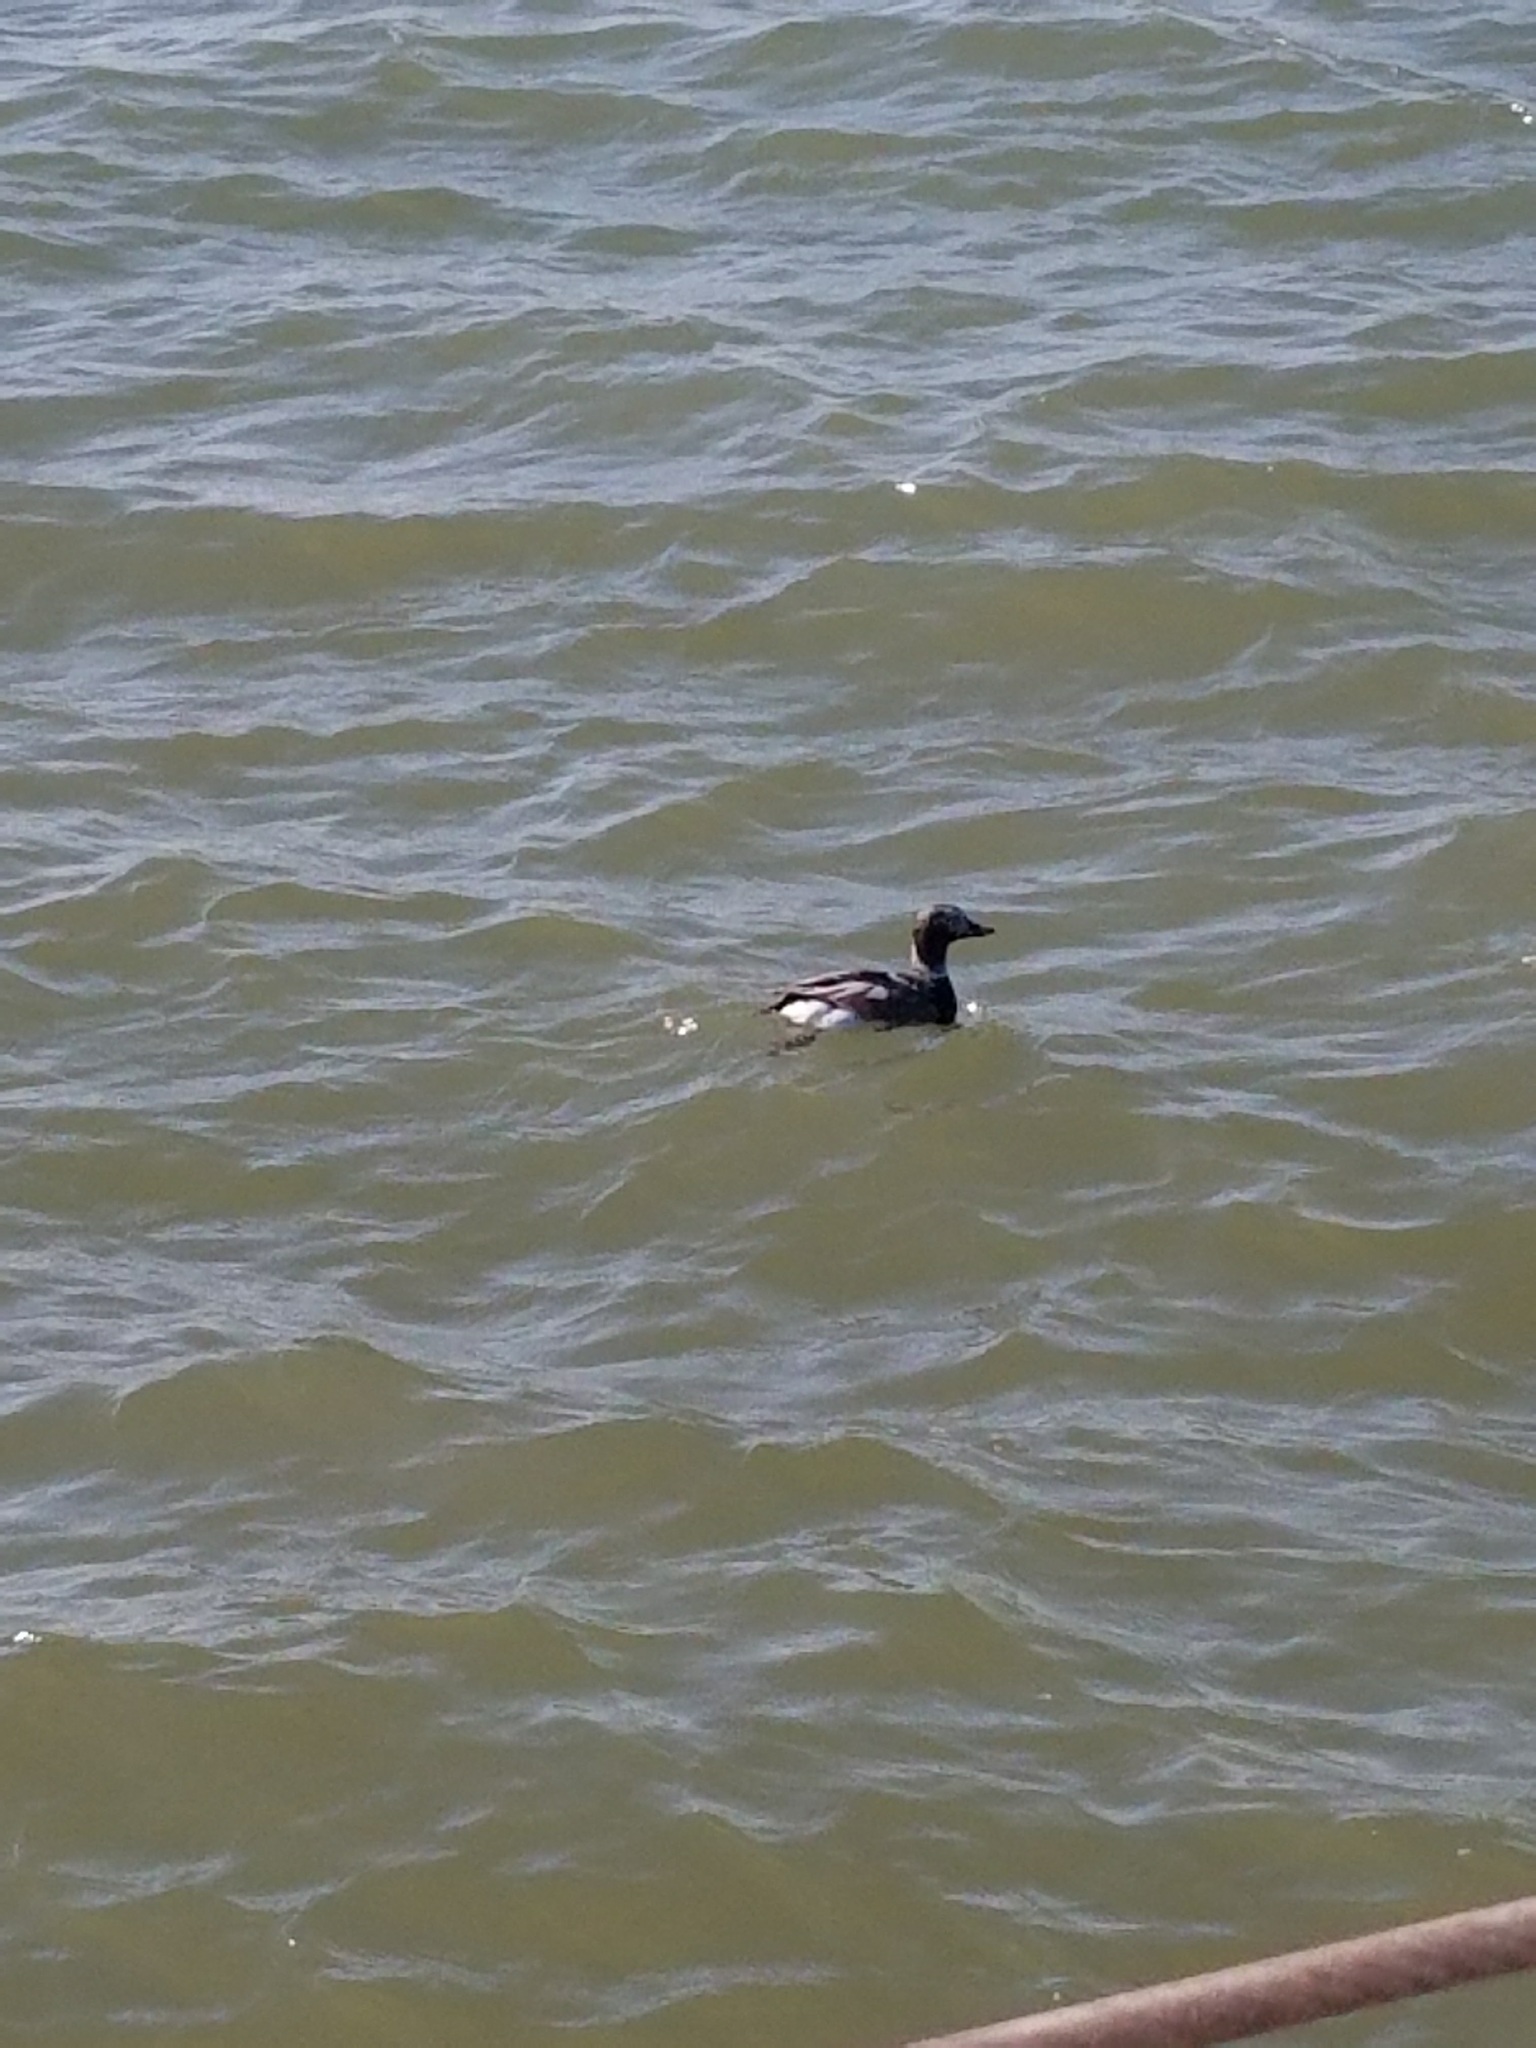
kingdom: Animalia
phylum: Chordata
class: Aves
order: Anseriformes
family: Anatidae
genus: Clangula
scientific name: Clangula hyemalis
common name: Long-tailed duck
